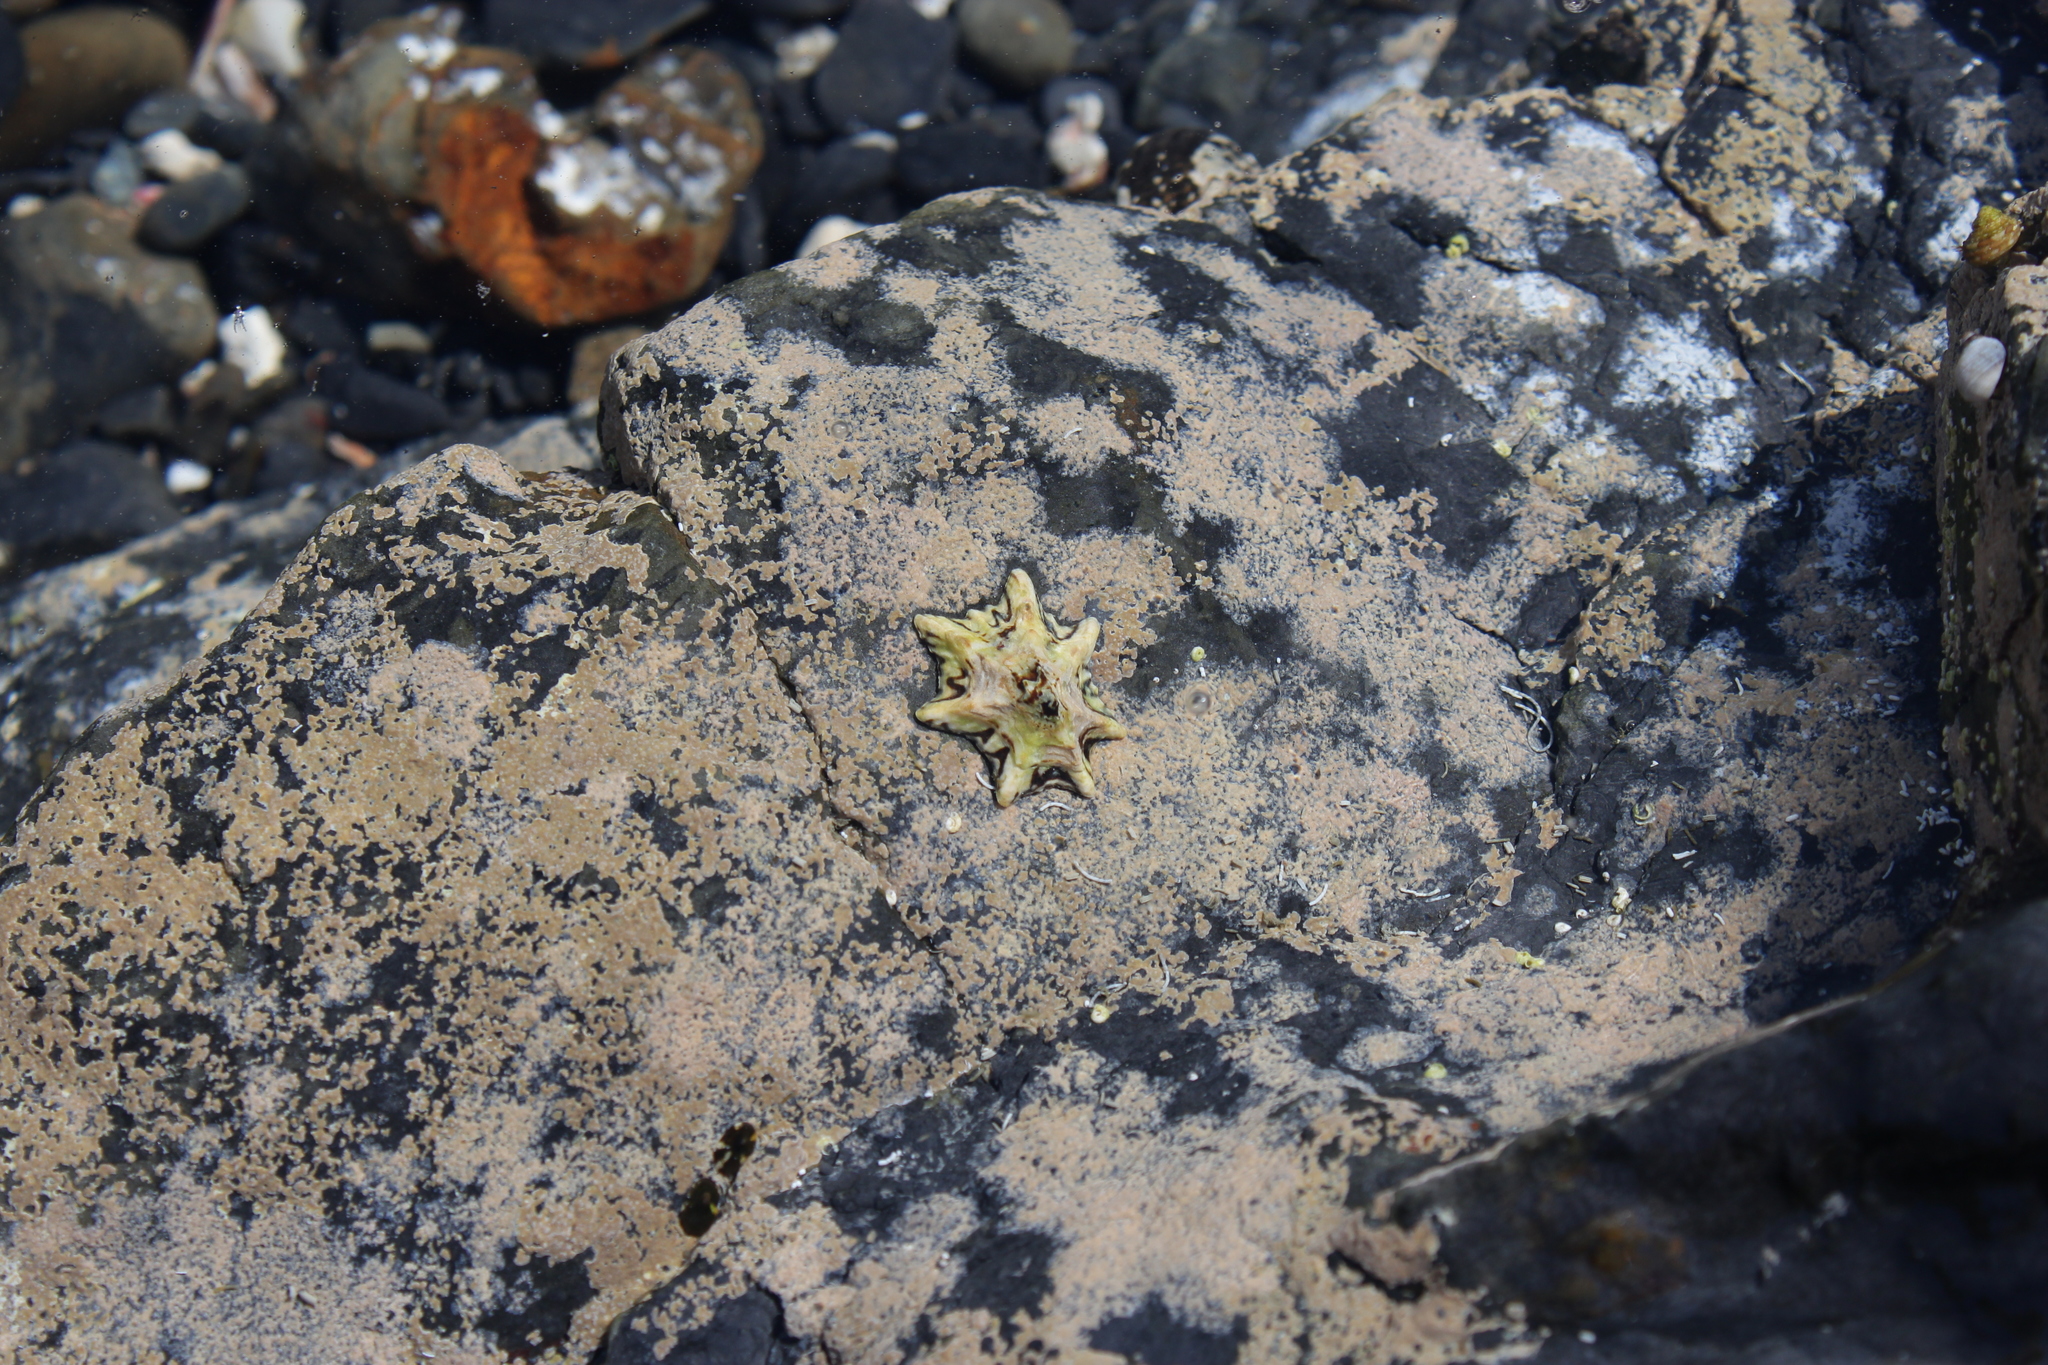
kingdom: Animalia
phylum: Mollusca
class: Gastropoda
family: Lottiidae
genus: Patelloida
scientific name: Patelloida saccharina
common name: Pacific sugar limpet
